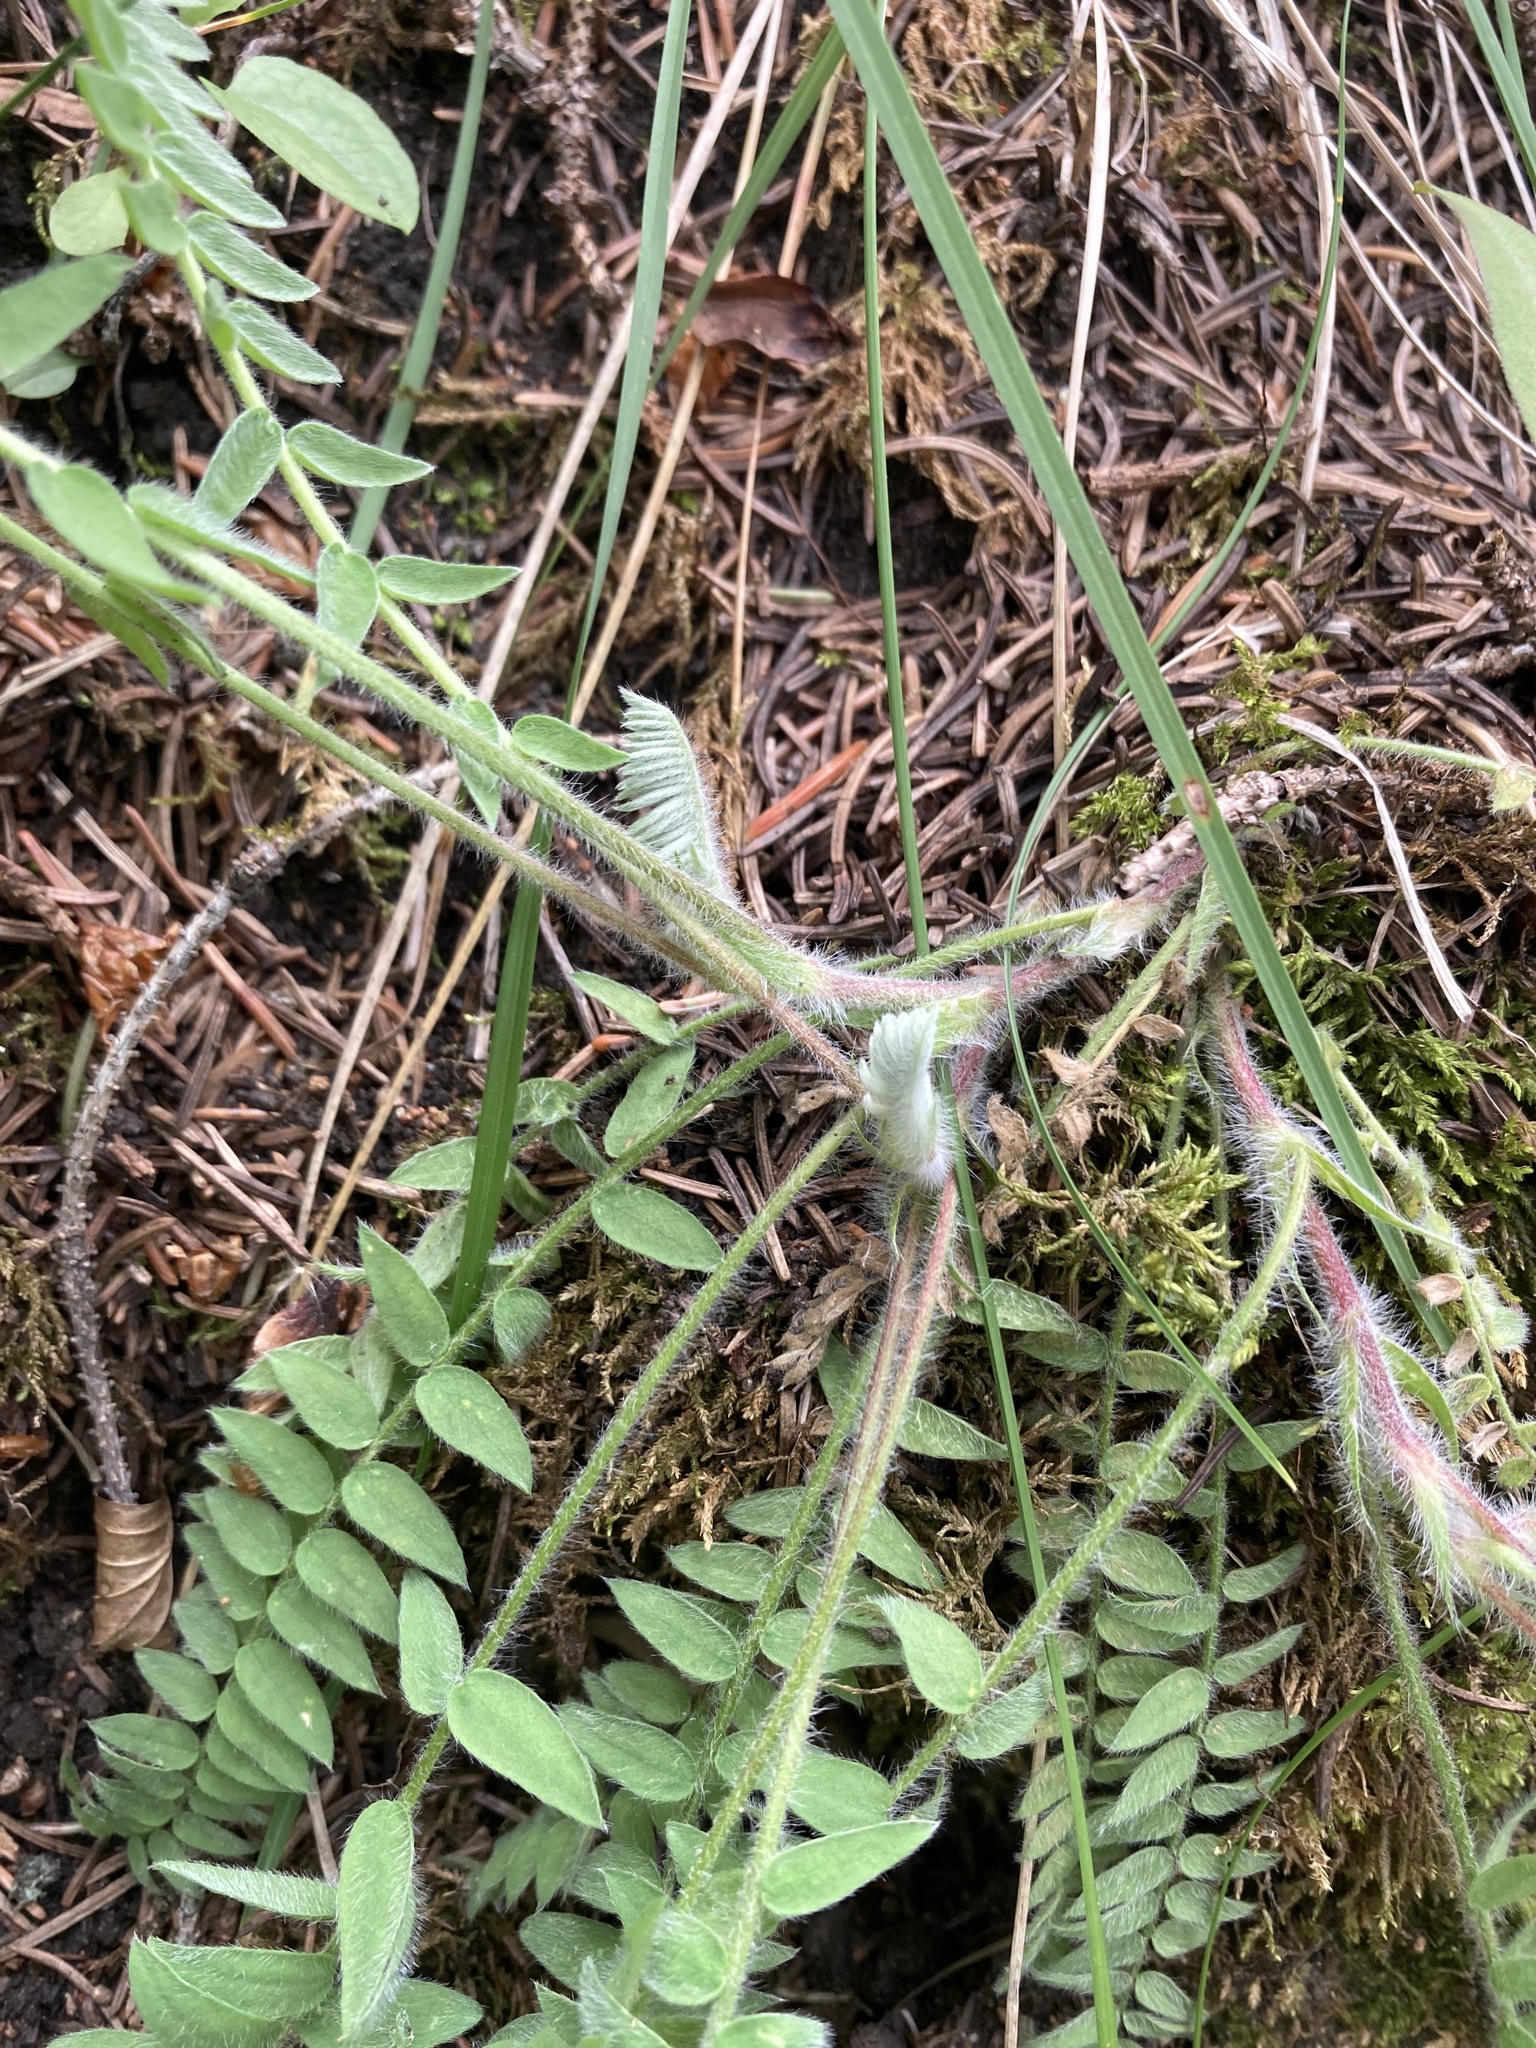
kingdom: Plantae
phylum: Tracheophyta
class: Magnoliopsida
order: Fabales
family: Fabaceae
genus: Oxytropis
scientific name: Oxytropis deflexa
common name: Stemmed oxytrope
